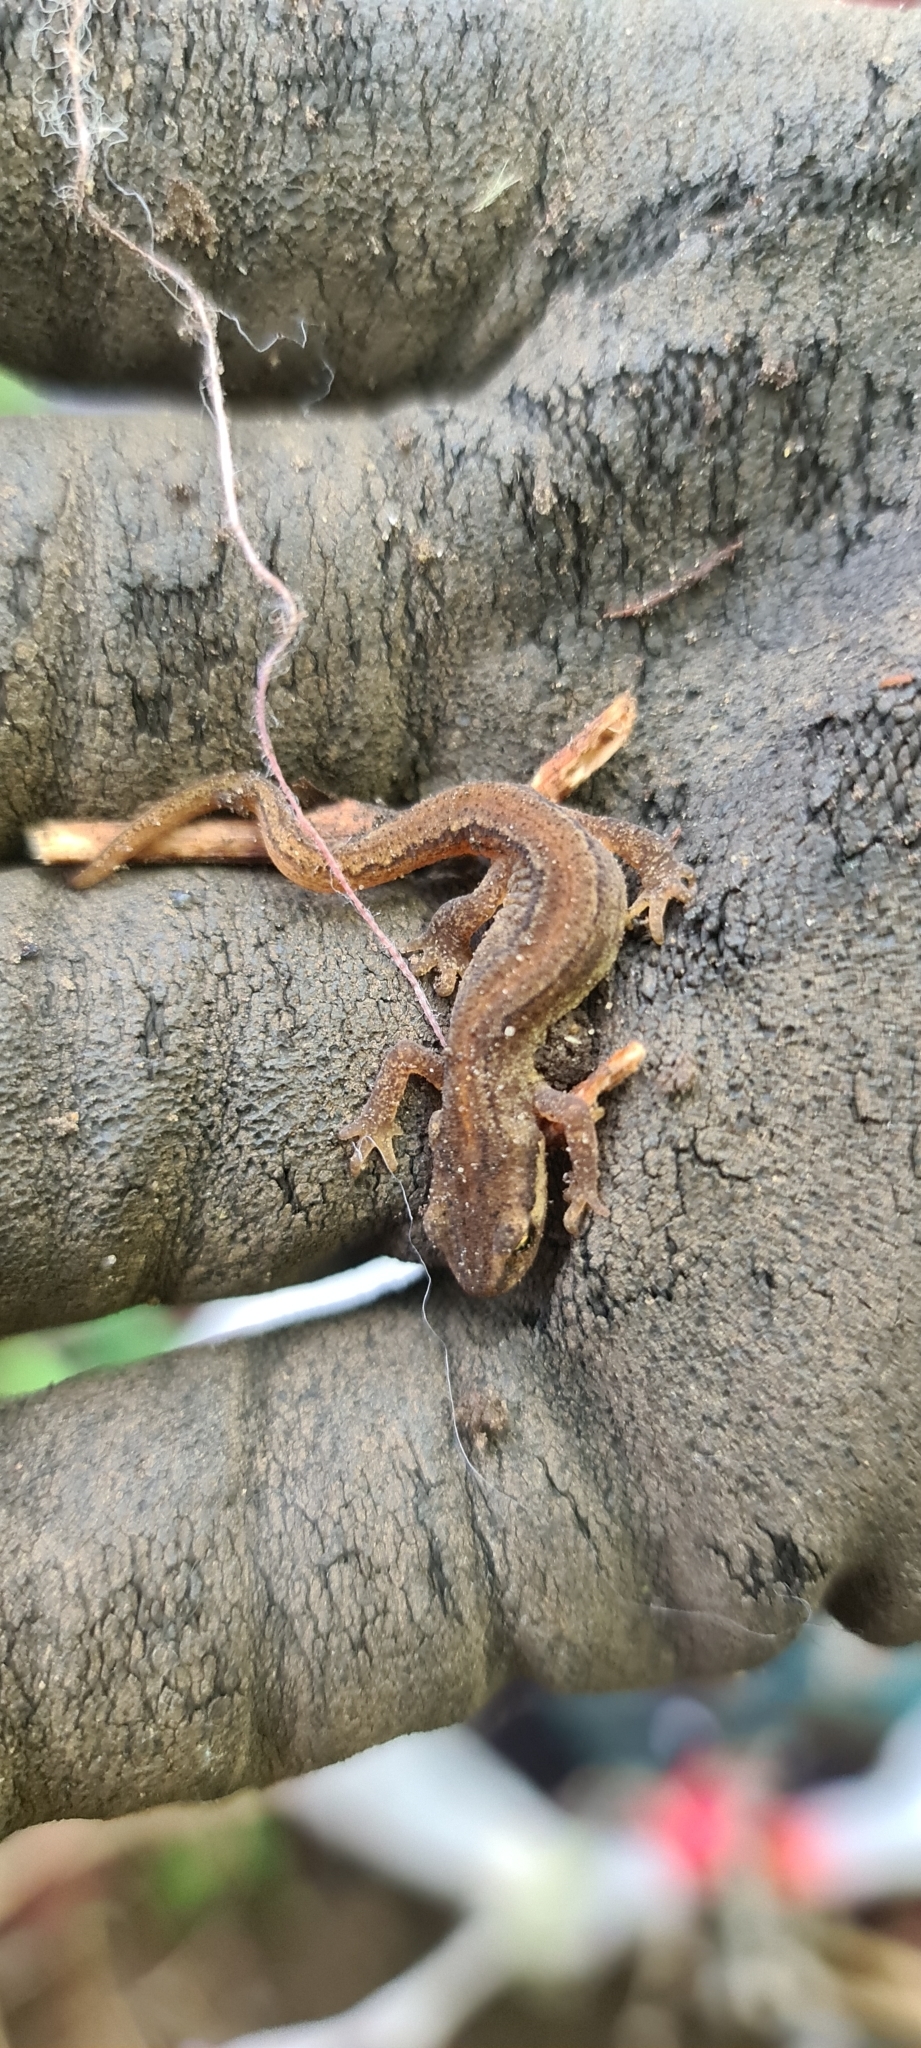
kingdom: Animalia
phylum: Chordata
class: Amphibia
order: Caudata
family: Salamandridae
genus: Lissotriton
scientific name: Lissotriton vulgaris
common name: Smooth newt
